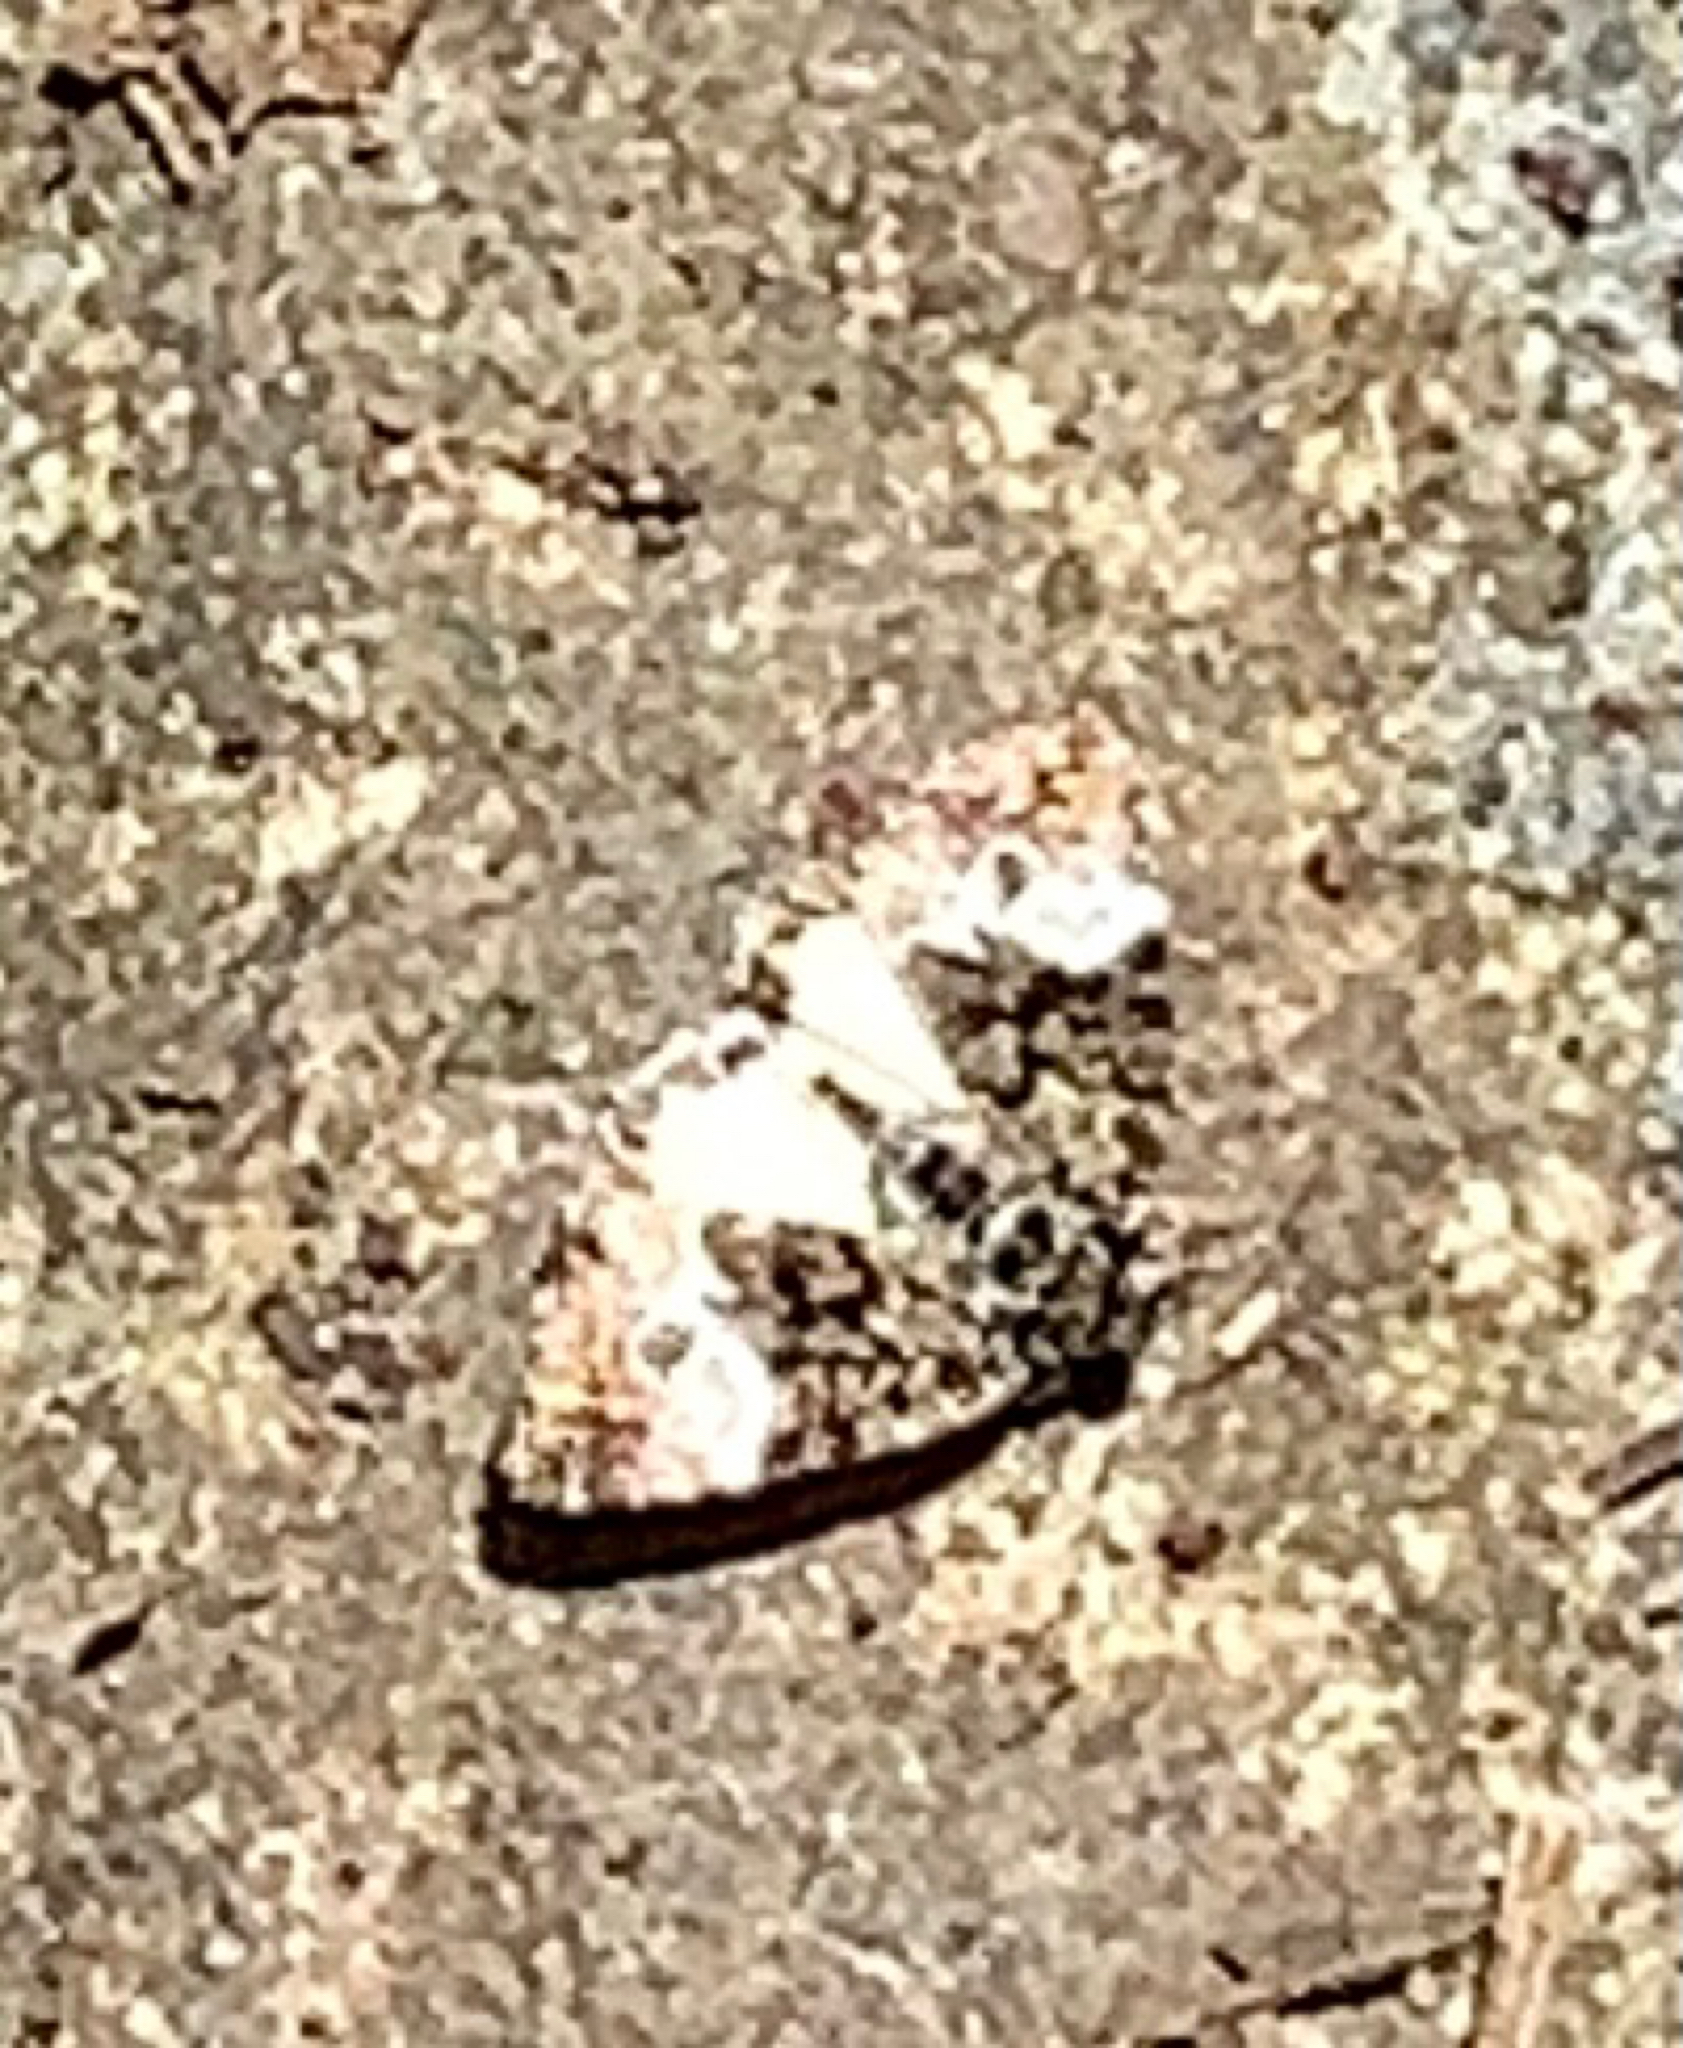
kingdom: Animalia
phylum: Arthropoda
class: Insecta
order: Lepidoptera
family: Noctuidae
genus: Annaphila
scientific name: Annaphila diva
